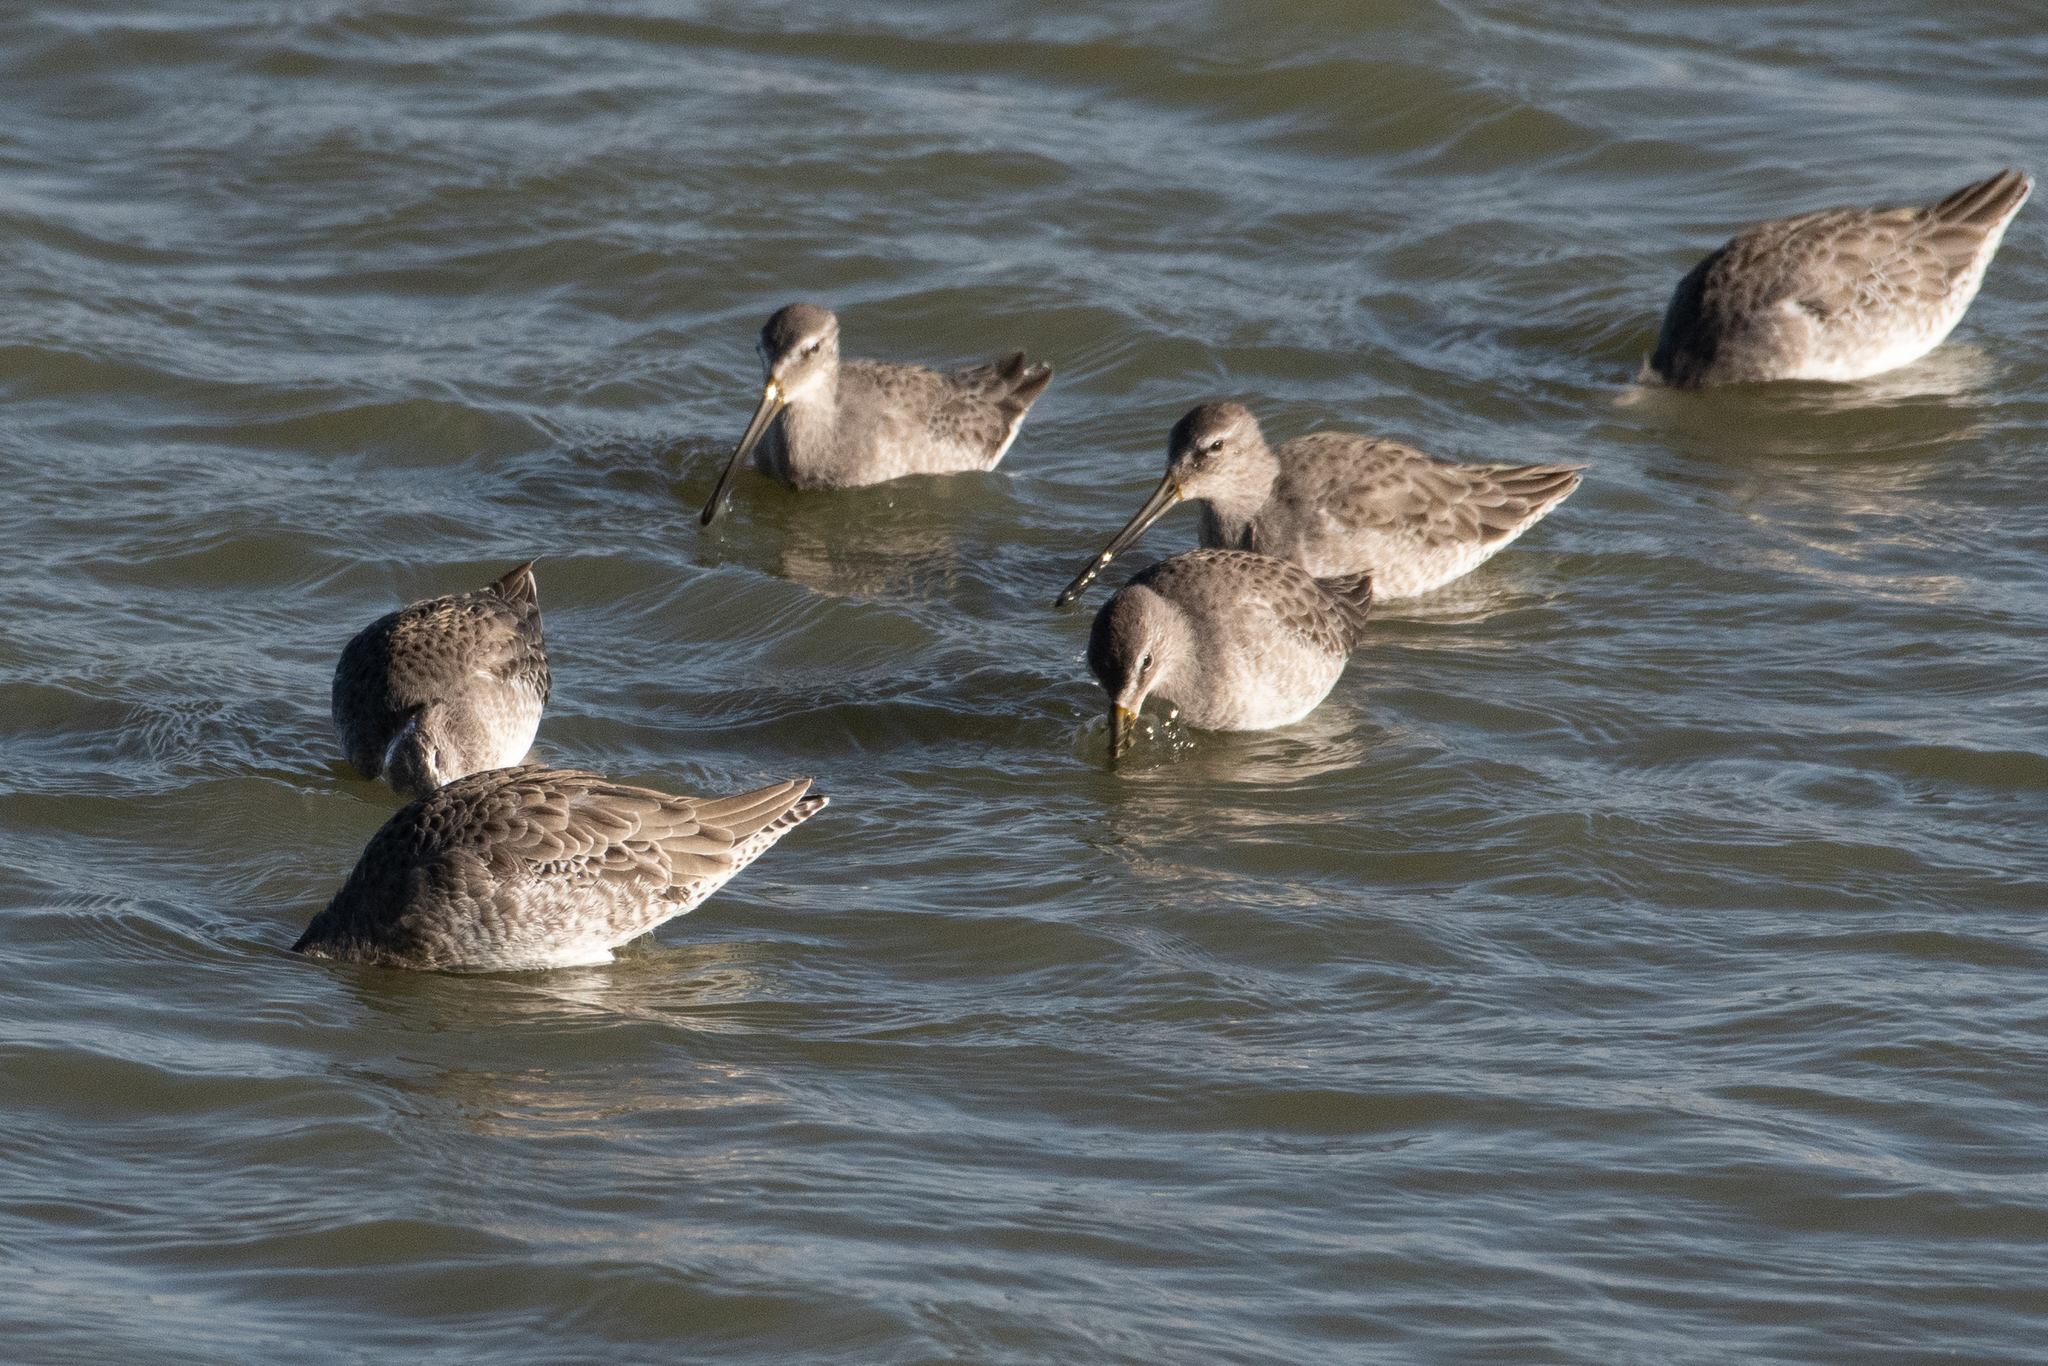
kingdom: Animalia
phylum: Chordata
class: Aves
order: Charadriiformes
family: Scolopacidae
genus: Limnodromus
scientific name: Limnodromus scolopaceus
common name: Long-billed dowitcher
